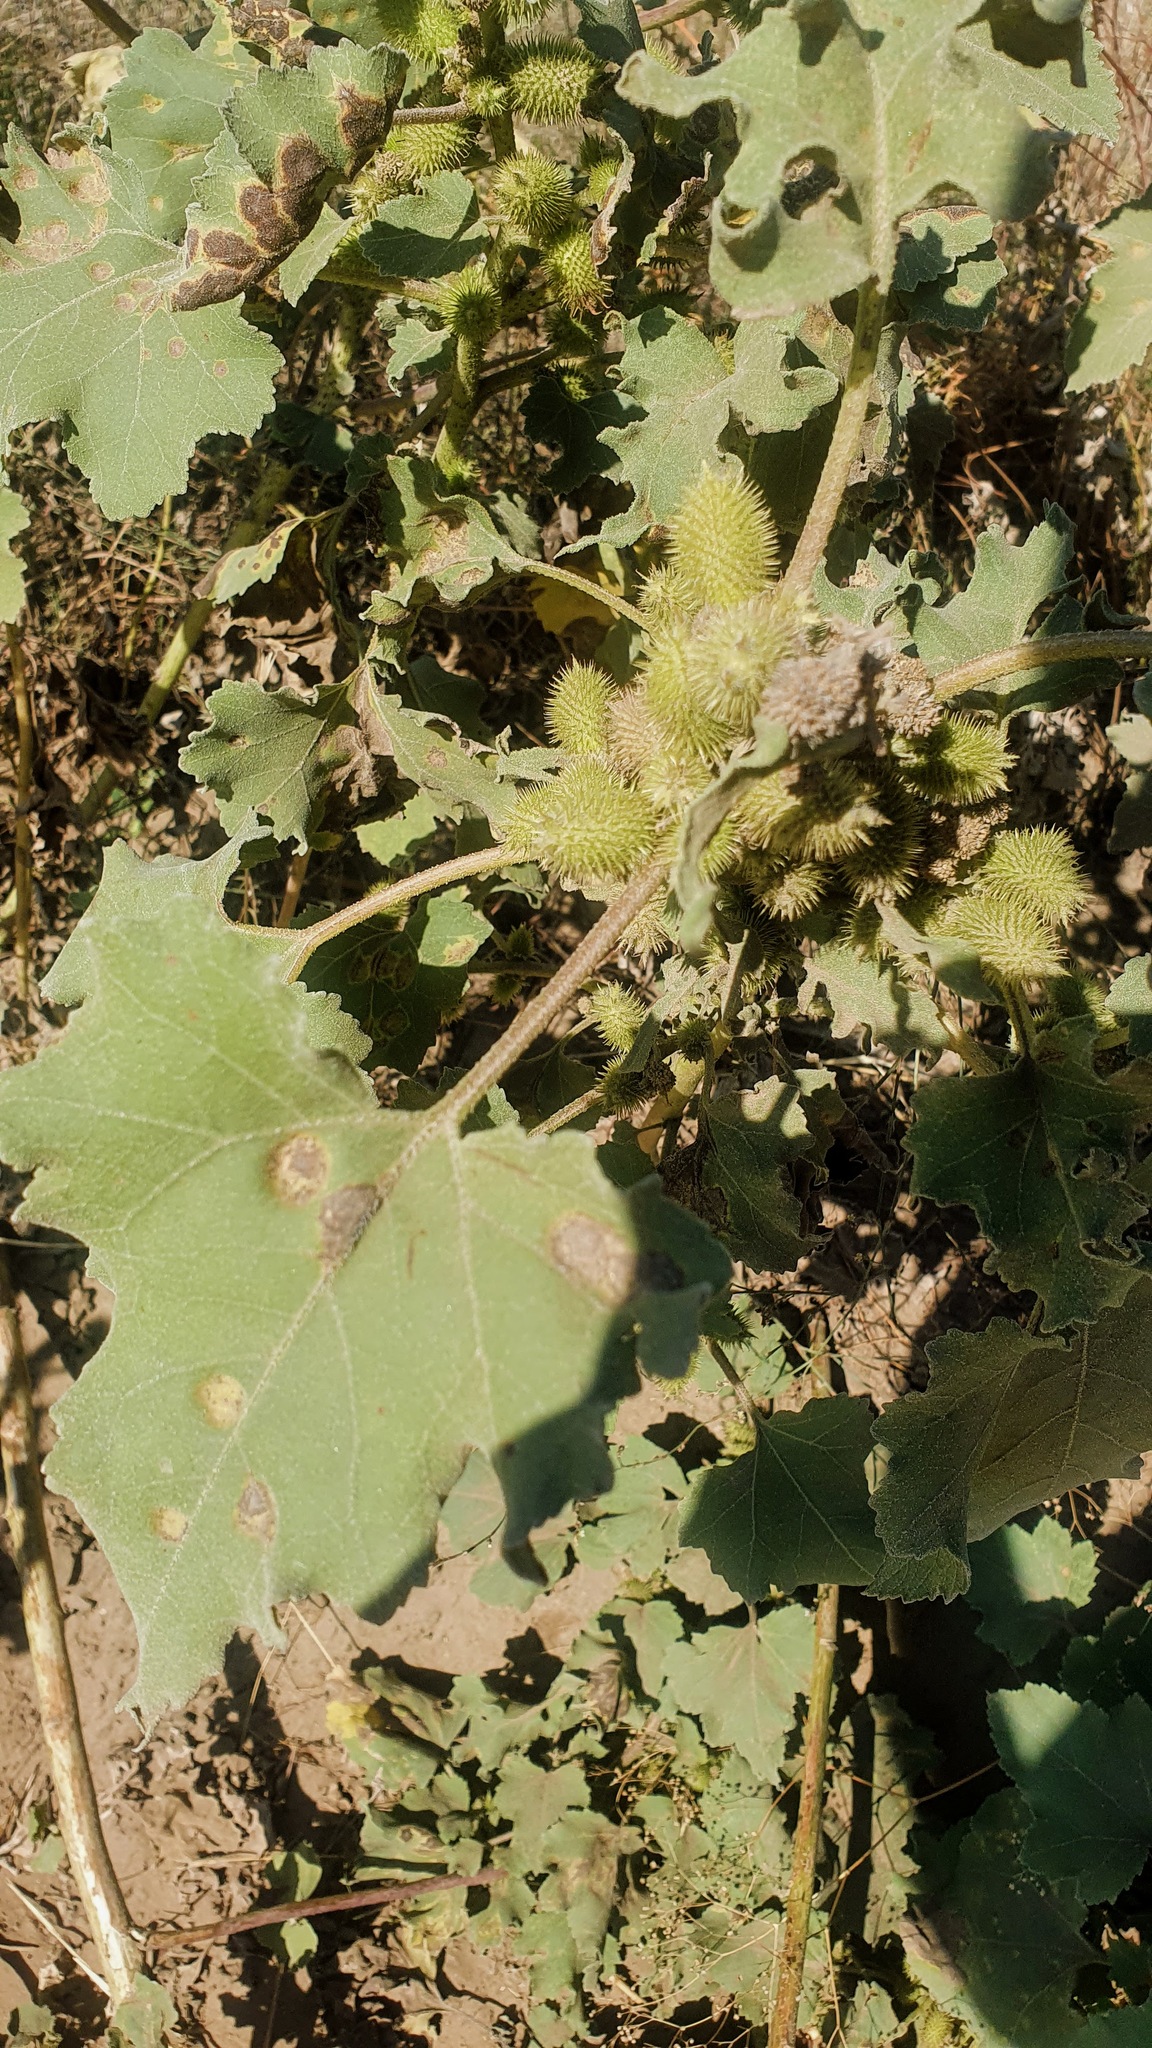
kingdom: Plantae
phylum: Tracheophyta
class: Magnoliopsida
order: Asterales
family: Asteraceae
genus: Xanthium
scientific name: Xanthium orientale
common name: Californian burr
